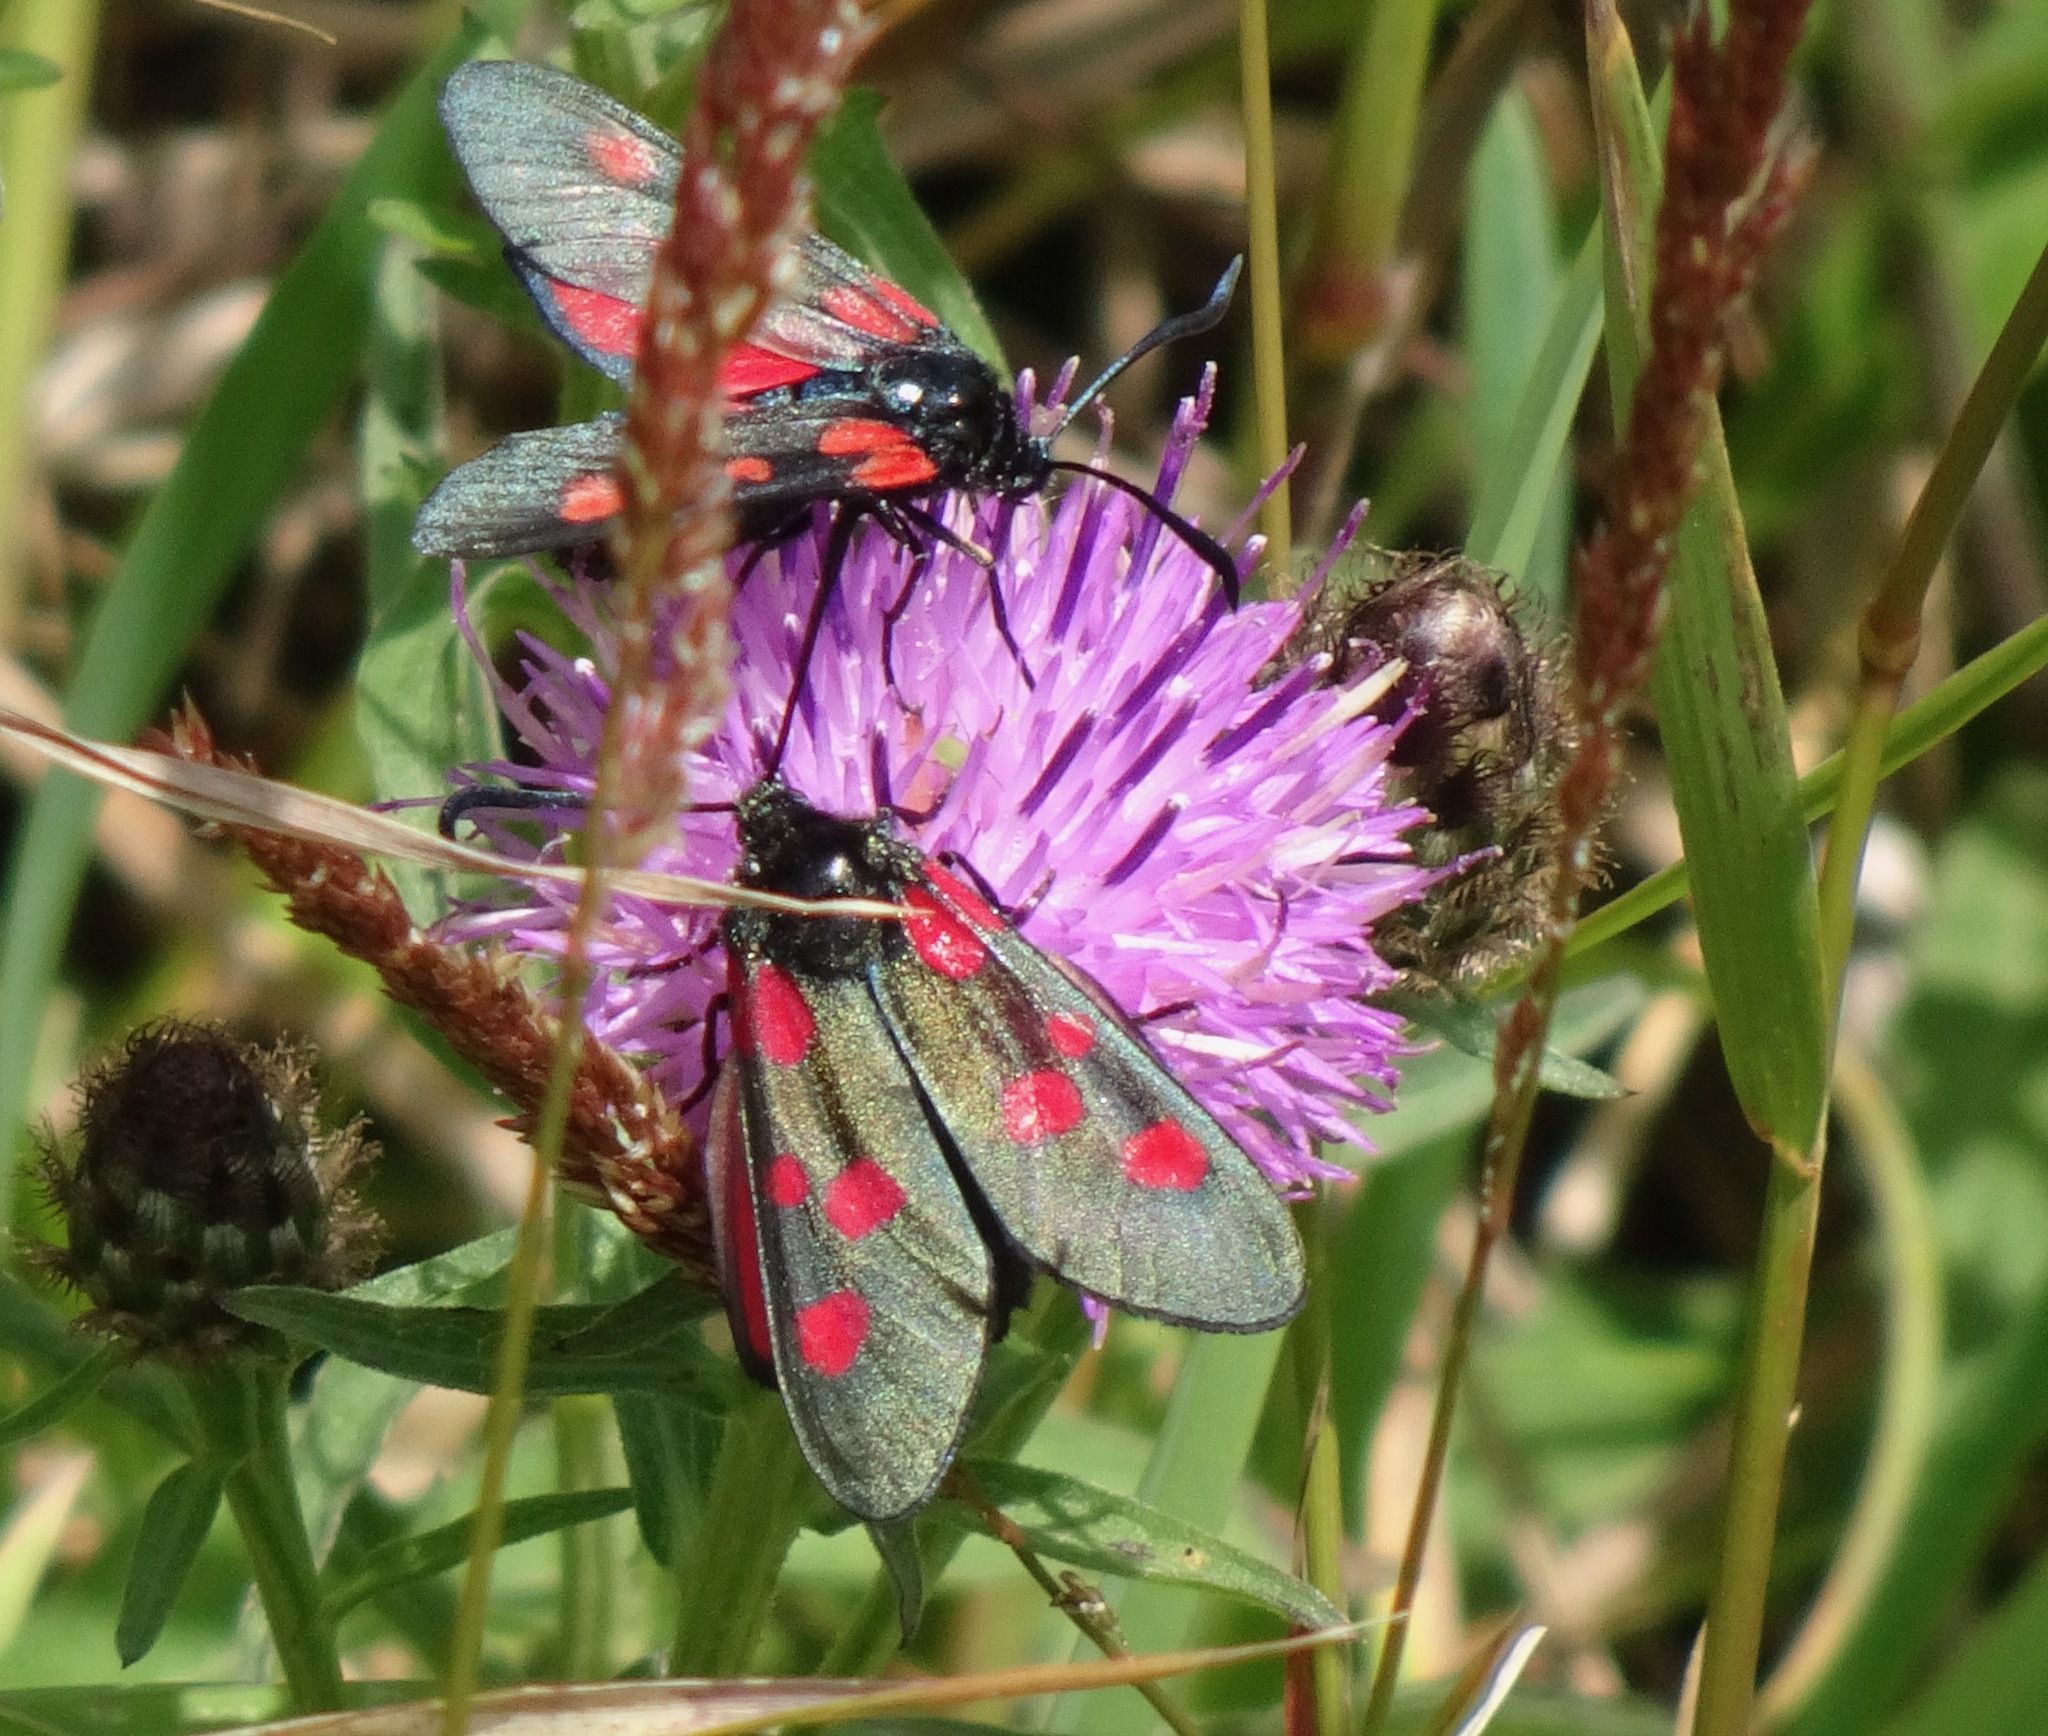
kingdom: Animalia
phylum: Arthropoda
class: Insecta
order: Lepidoptera
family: Zygaenidae
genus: Zygaena
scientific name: Zygaena lonicerae
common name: Narrow-bordered five-spot burnet
